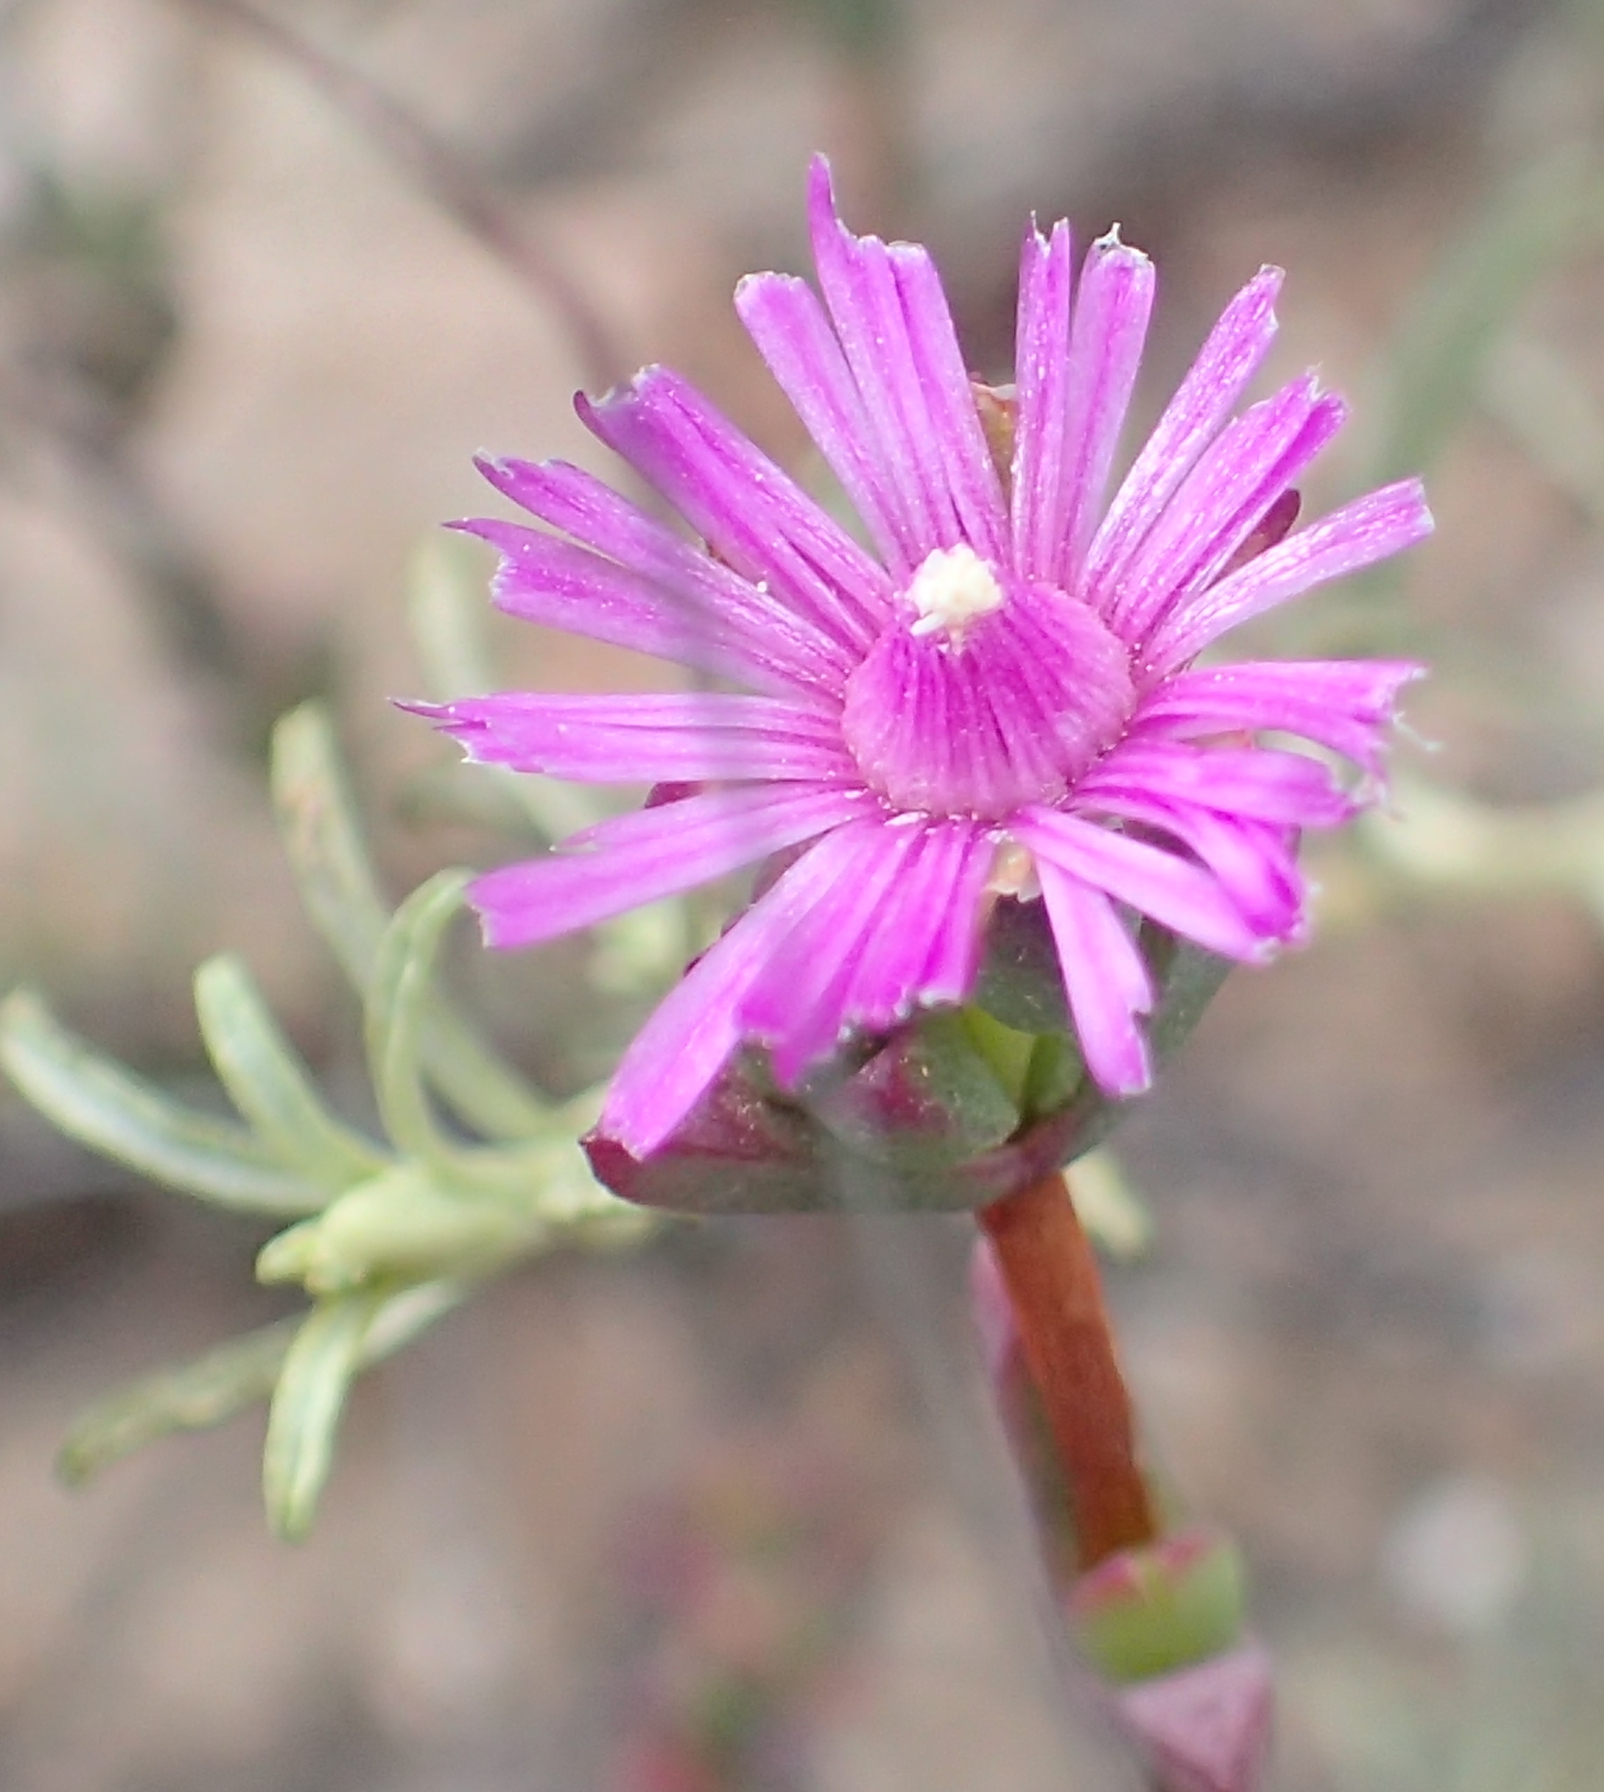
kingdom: Plantae
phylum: Tracheophyta
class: Magnoliopsida
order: Caryophyllales
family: Aizoaceae
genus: Ruschia
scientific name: Ruschia orientalis
